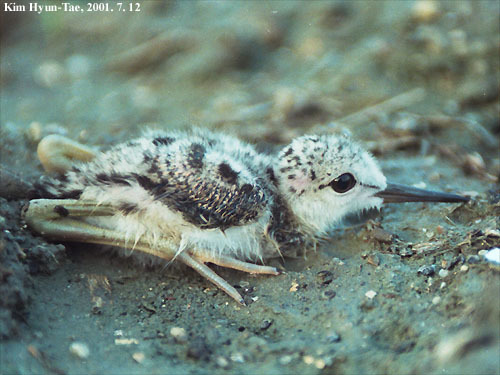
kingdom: Animalia
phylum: Chordata
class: Aves
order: Charadriiformes
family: Recurvirostridae
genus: Himantopus
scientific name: Himantopus himantopus
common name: Black-winged stilt
